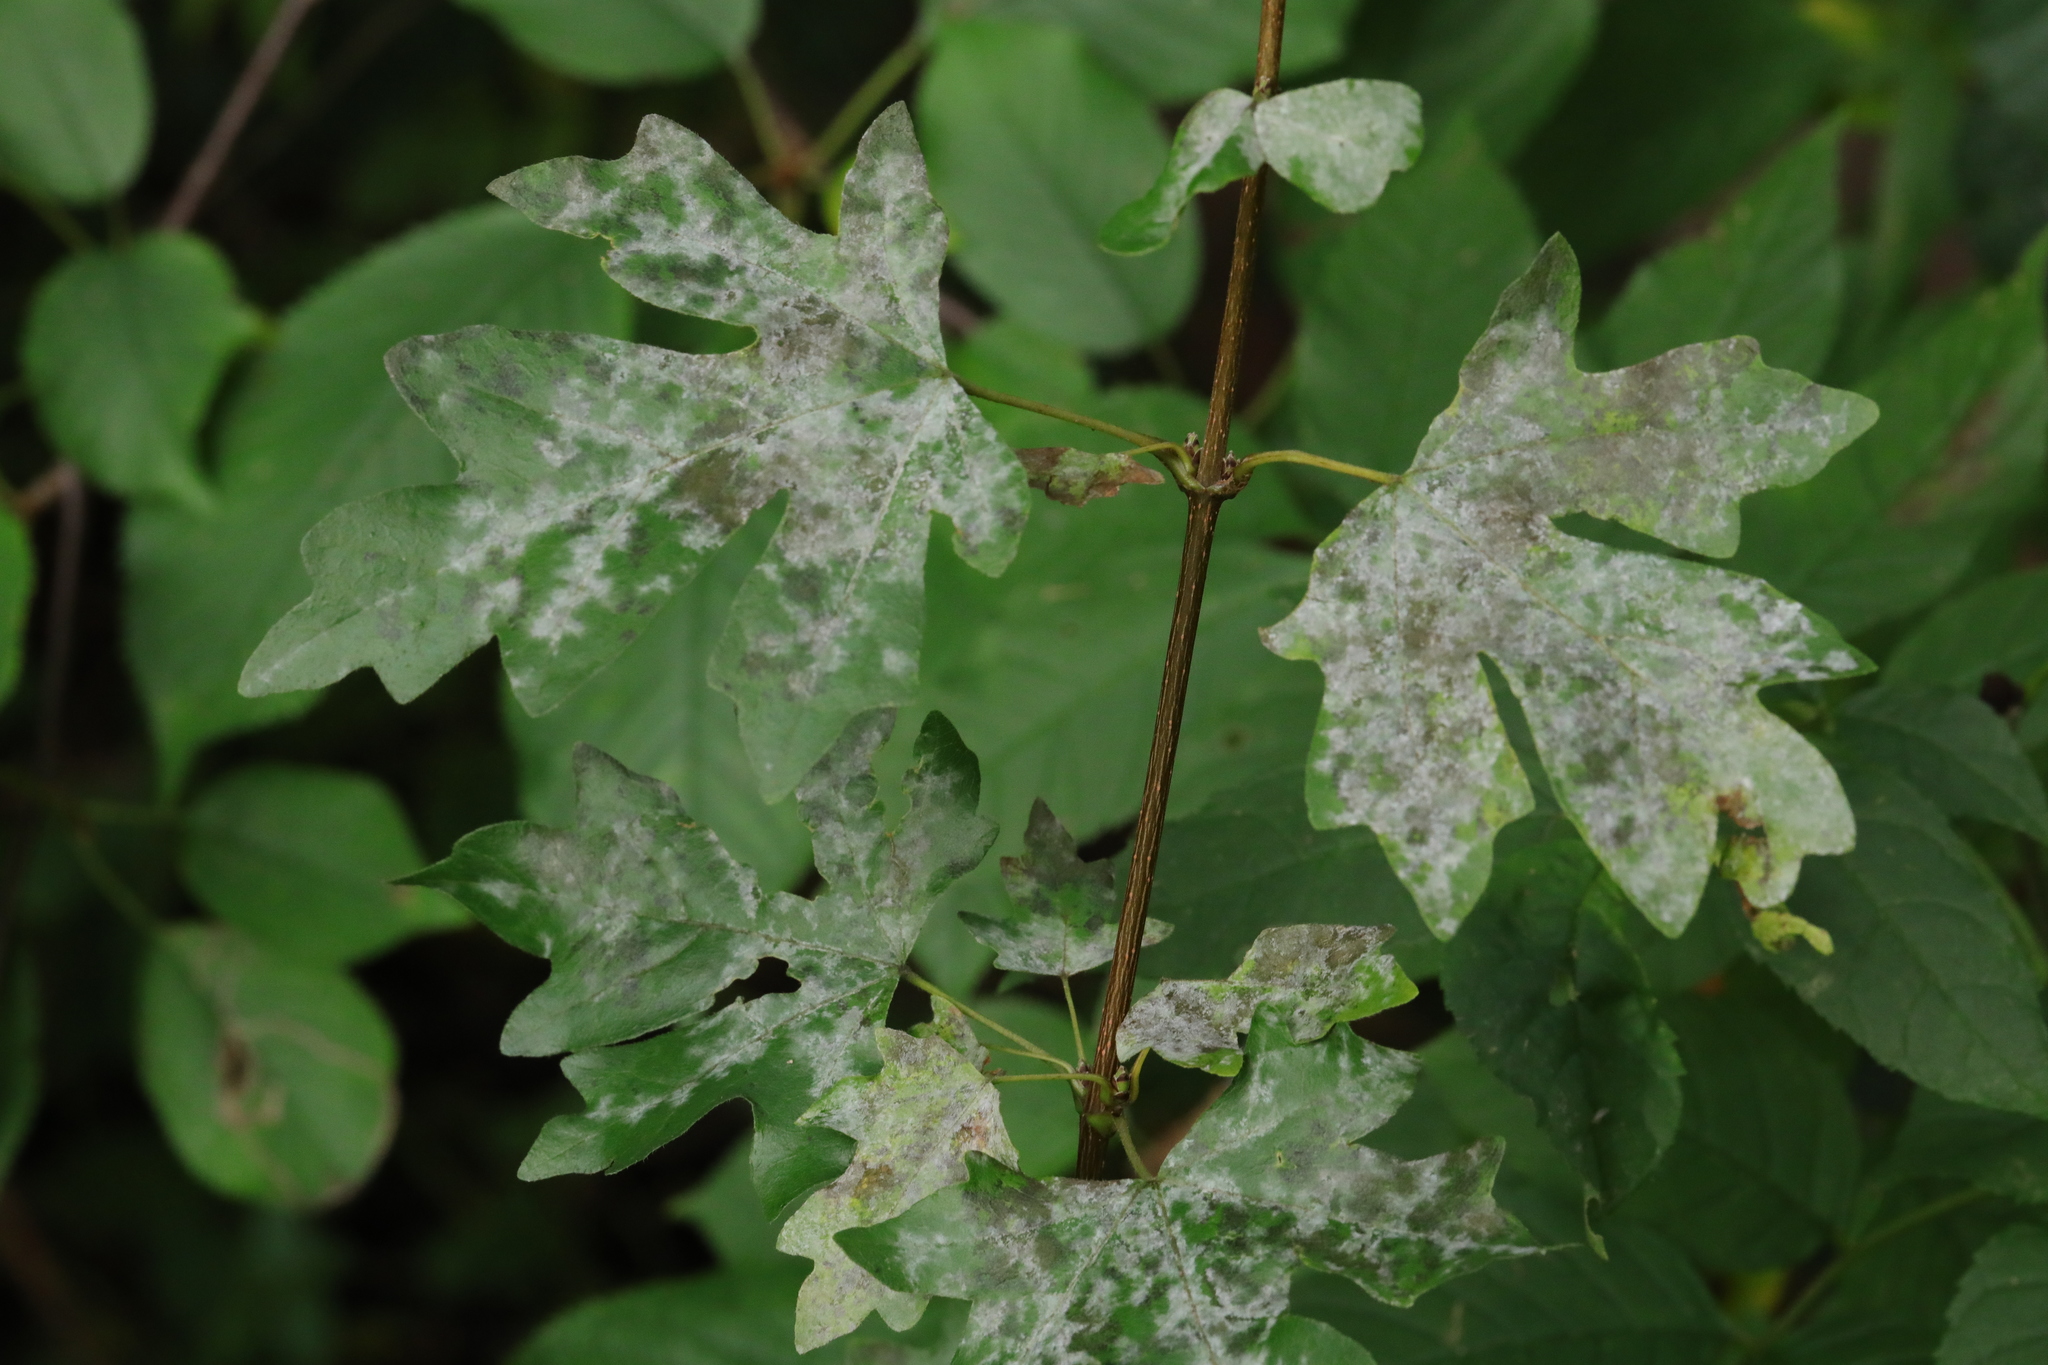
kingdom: Fungi
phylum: Ascomycota
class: Leotiomycetes
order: Helotiales
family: Erysiphaceae
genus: Sawadaea
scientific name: Sawadaea bicornis
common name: Maple mildew
